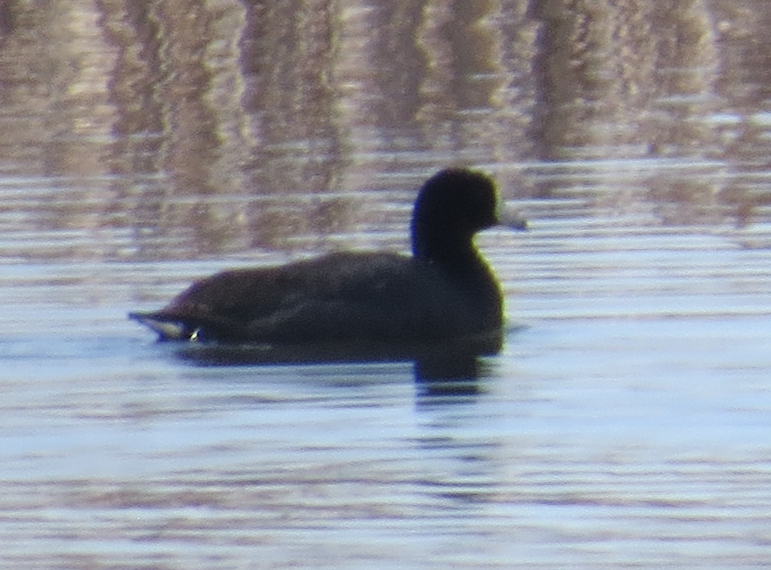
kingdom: Animalia
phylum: Chordata
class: Aves
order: Gruiformes
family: Rallidae
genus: Fulica
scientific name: Fulica americana
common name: American coot
